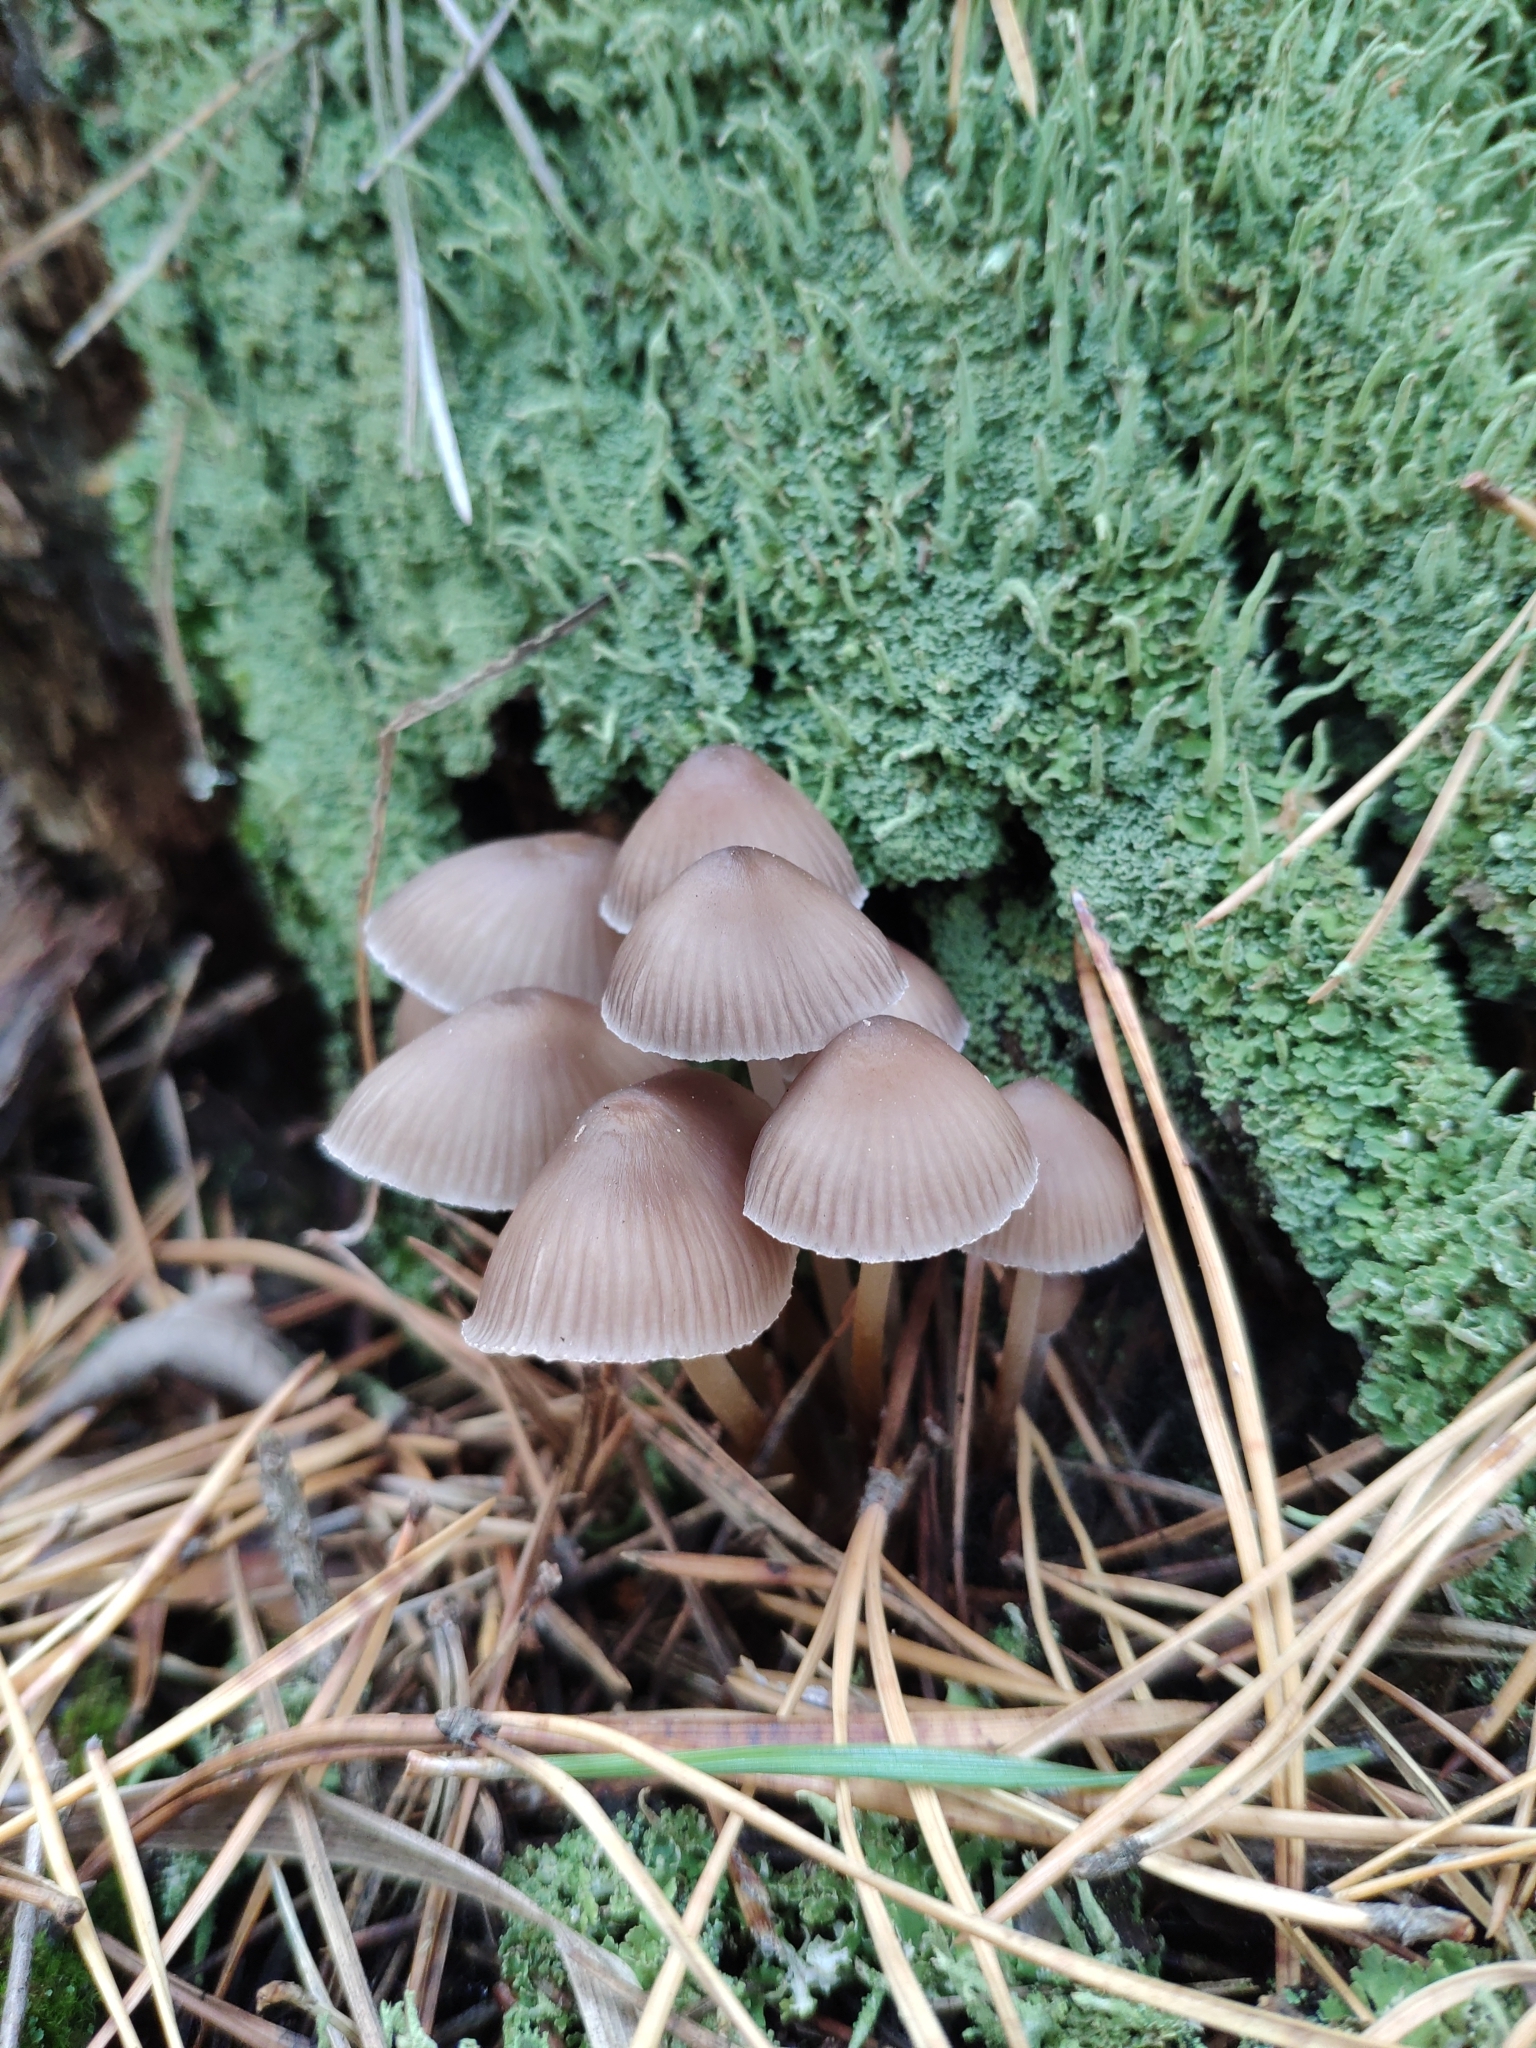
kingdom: Fungi
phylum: Basidiomycota
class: Agaricomycetes
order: Agaricales
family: Mycenaceae
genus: Mycena
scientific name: Mycena inclinata
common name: Clustered bonnet
